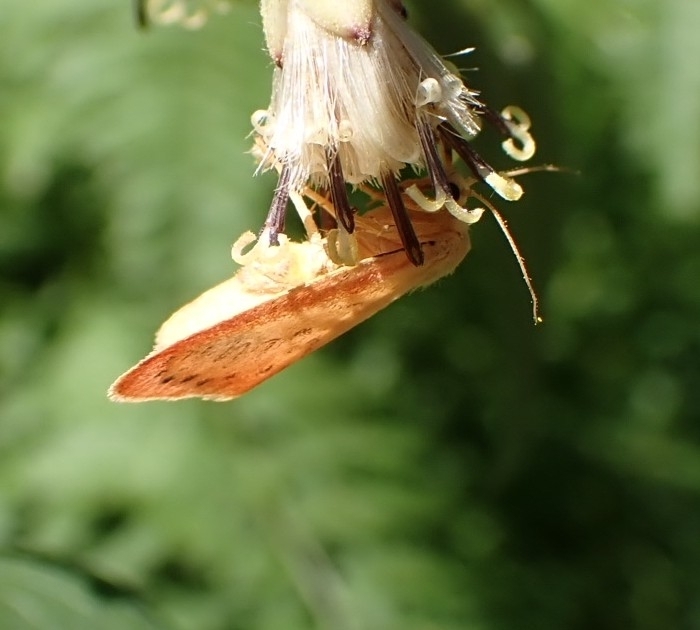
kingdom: Animalia
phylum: Arthropoda
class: Insecta
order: Lepidoptera
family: Erebidae
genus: Miltochrista
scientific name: Miltochrista miniata
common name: Rosy footman
